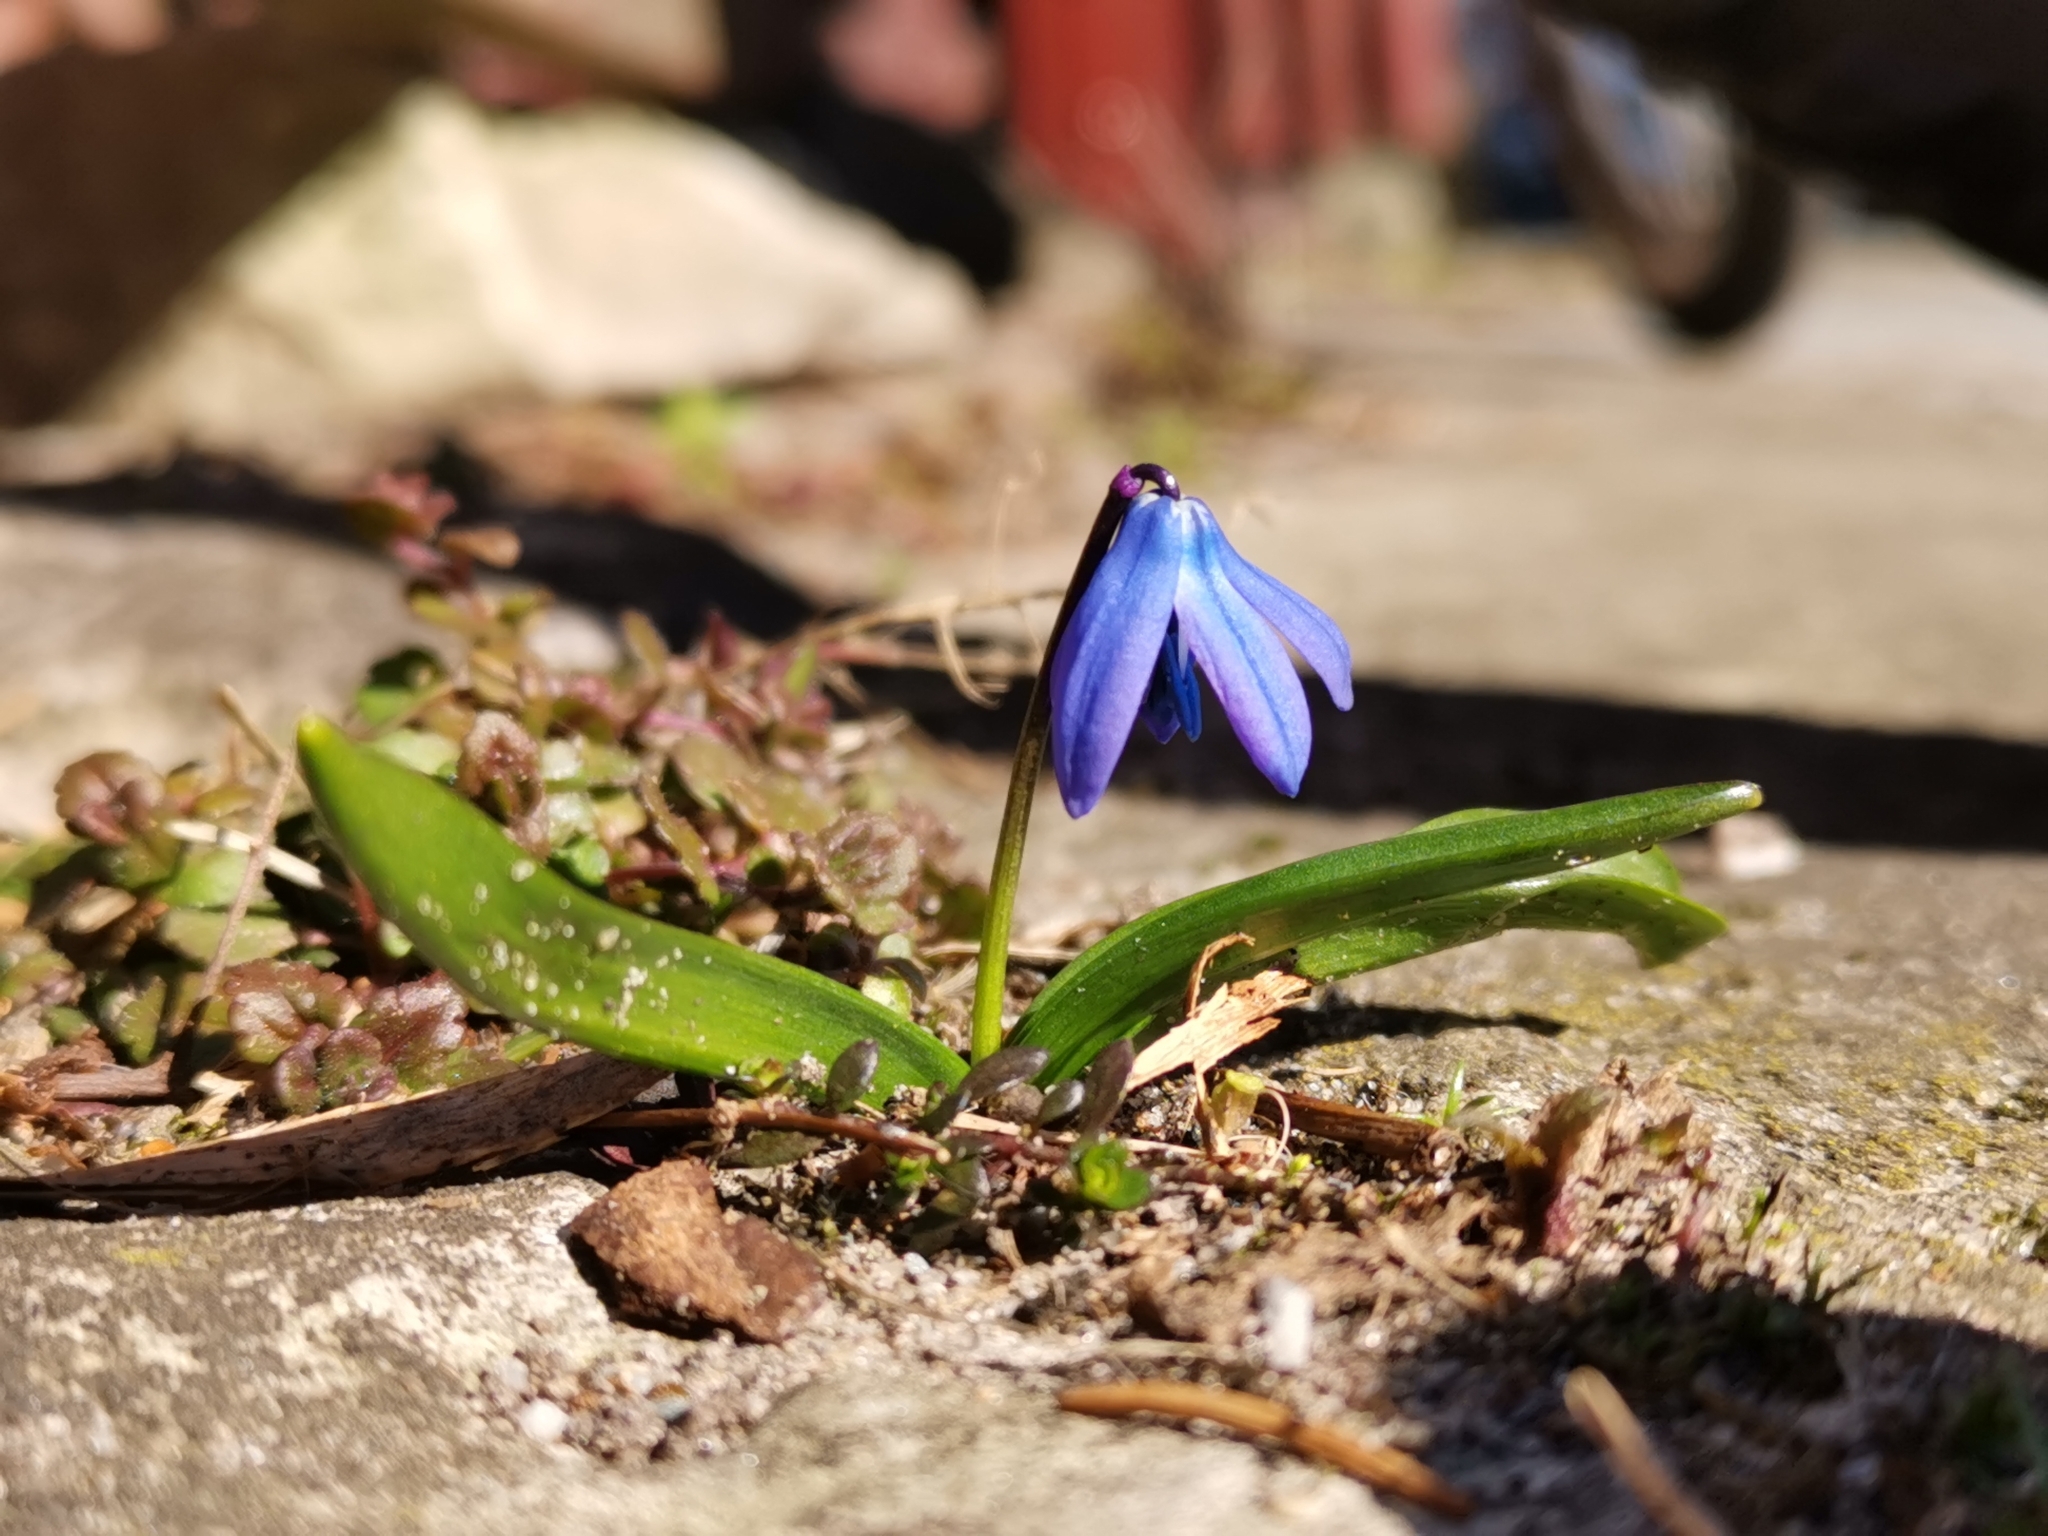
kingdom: Plantae
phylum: Tracheophyta
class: Liliopsida
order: Asparagales
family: Asparagaceae
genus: Scilla
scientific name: Scilla siberica
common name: Siberian squill
